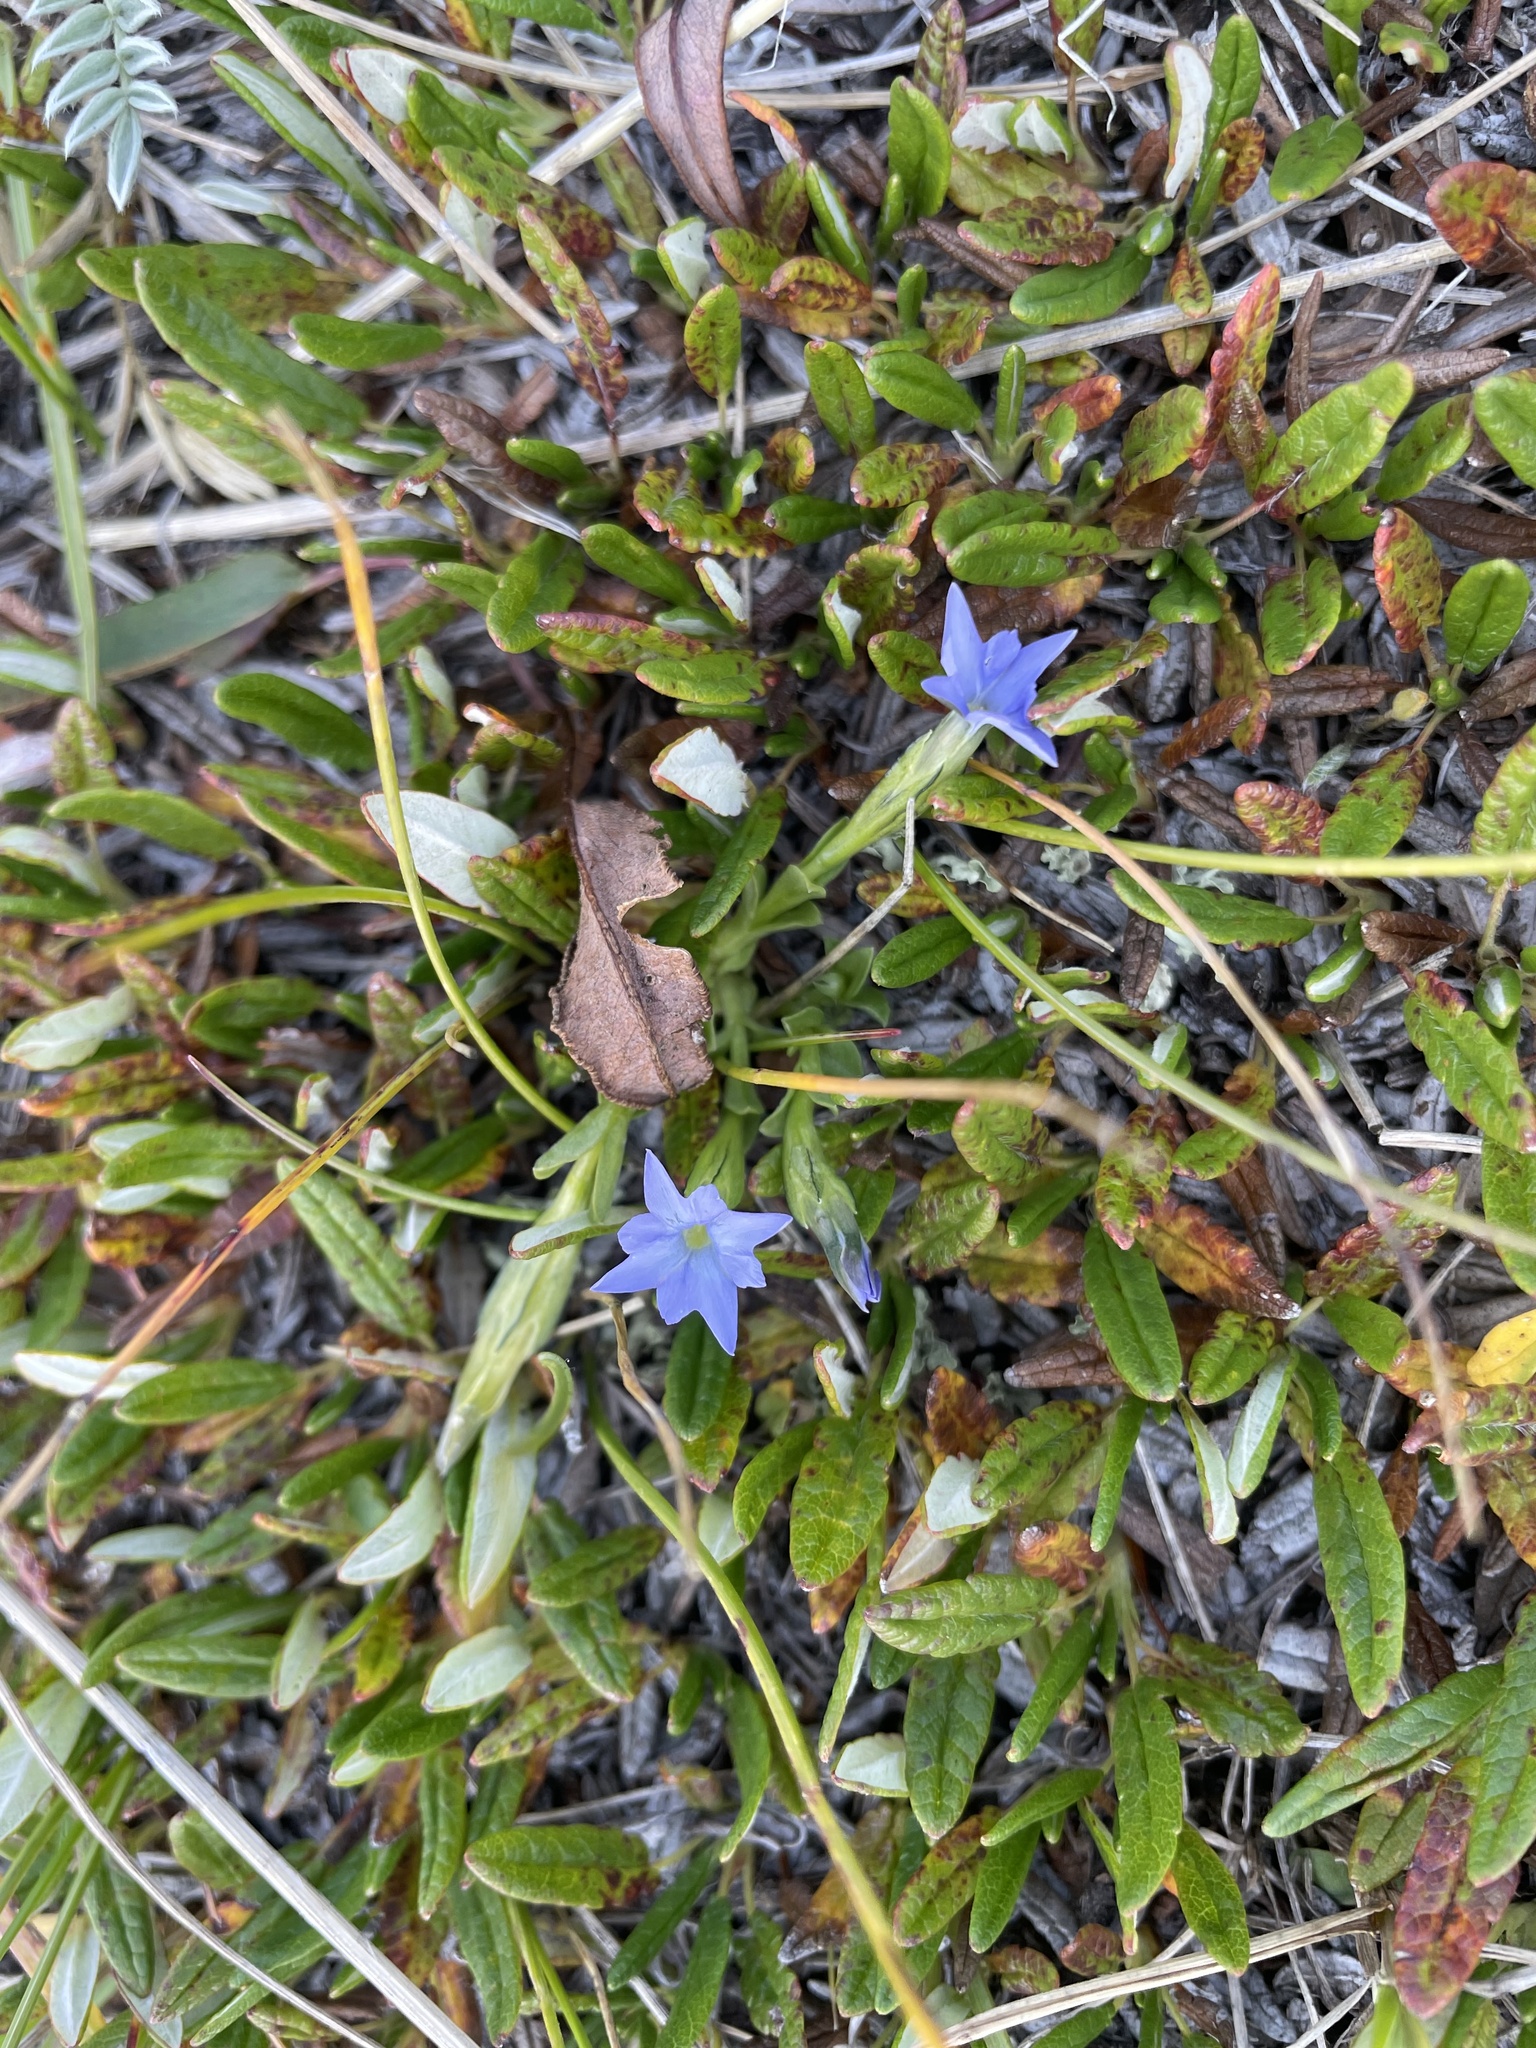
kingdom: Plantae
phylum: Tracheophyta
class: Magnoliopsida
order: Gentianales
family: Gentianaceae
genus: Gentiana
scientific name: Gentiana prostrata
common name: Moss gentian
